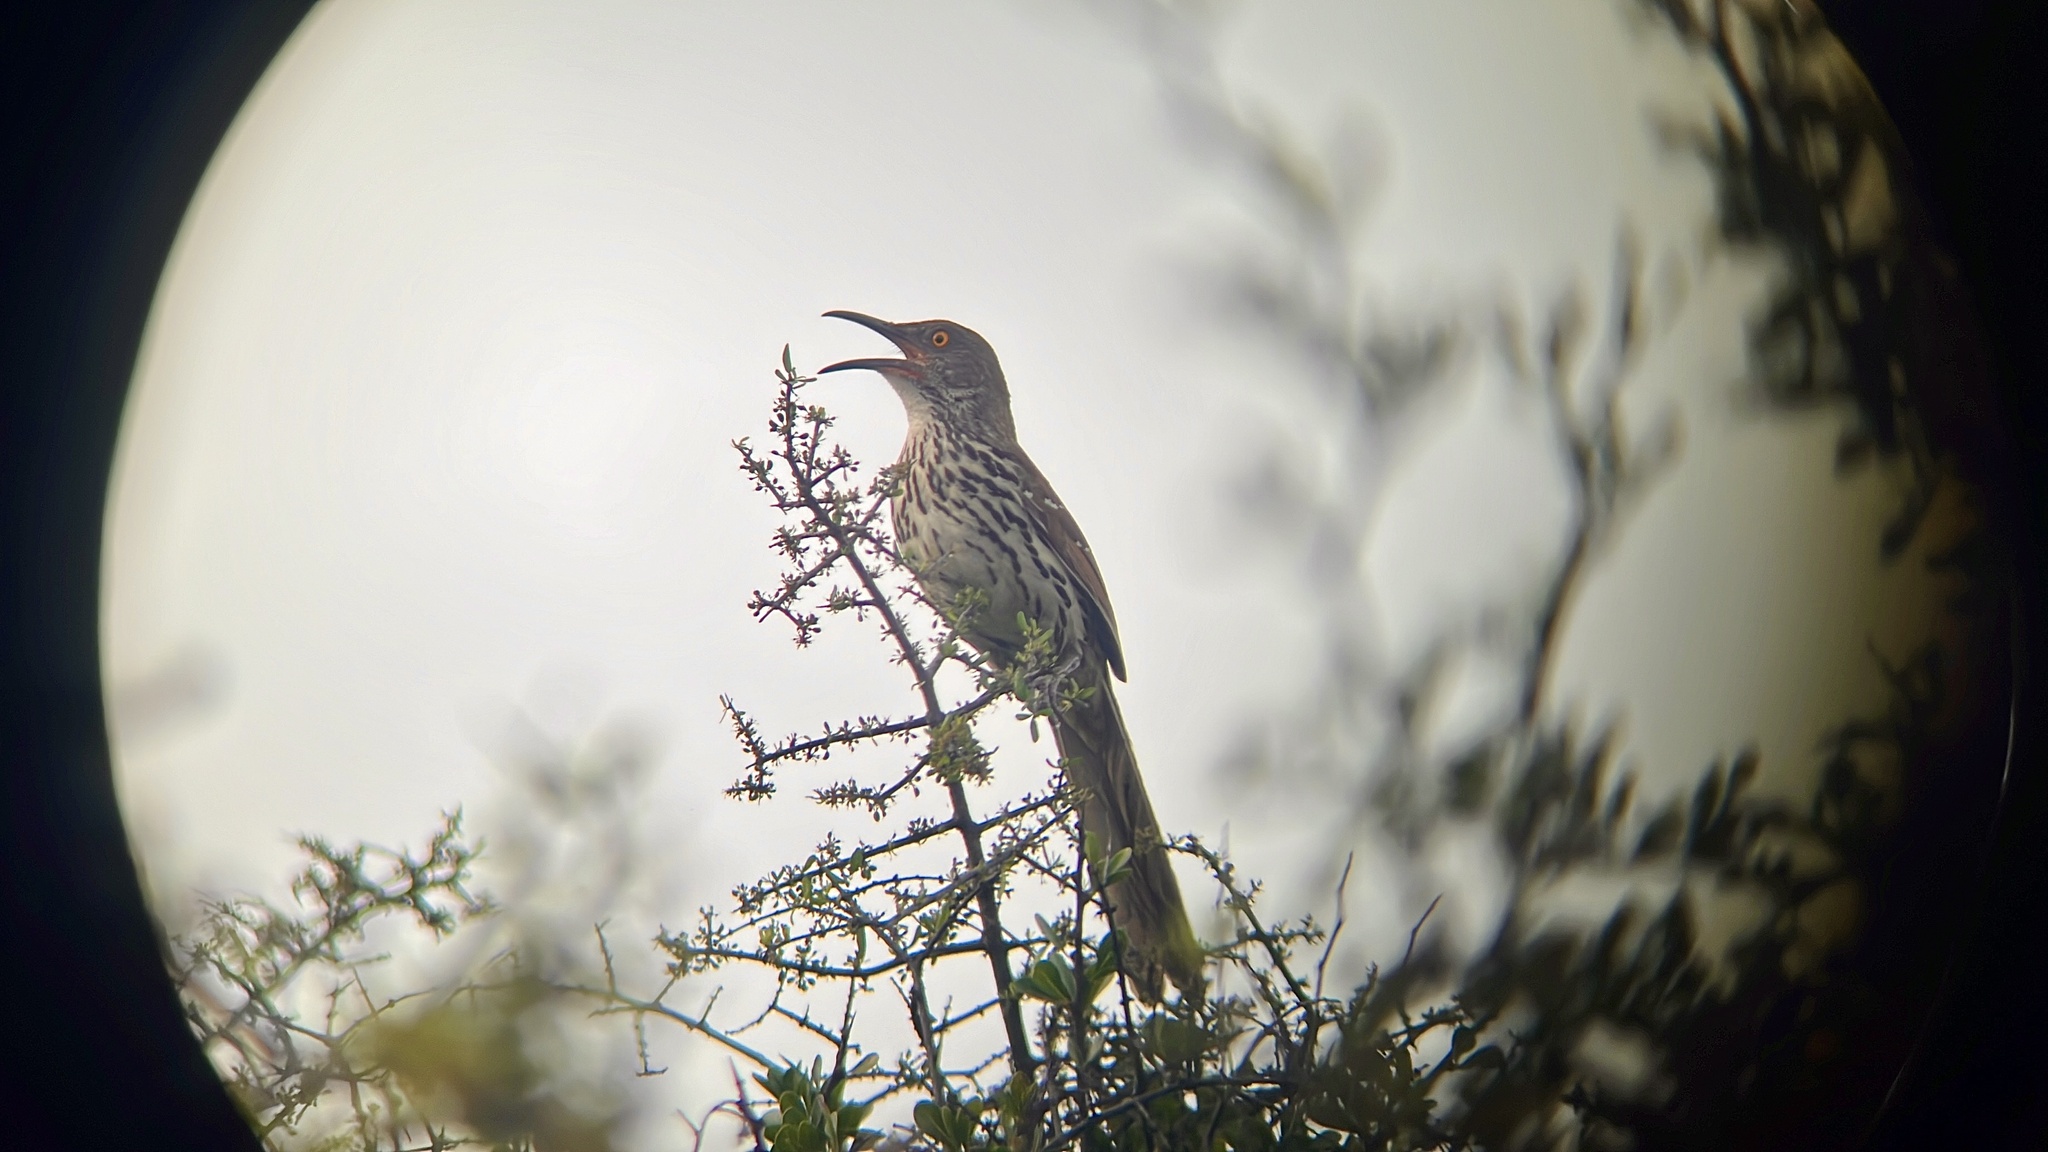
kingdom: Animalia
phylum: Chordata
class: Aves
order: Passeriformes
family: Mimidae
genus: Toxostoma
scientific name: Toxostoma longirostre
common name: Long-billed thrasher
